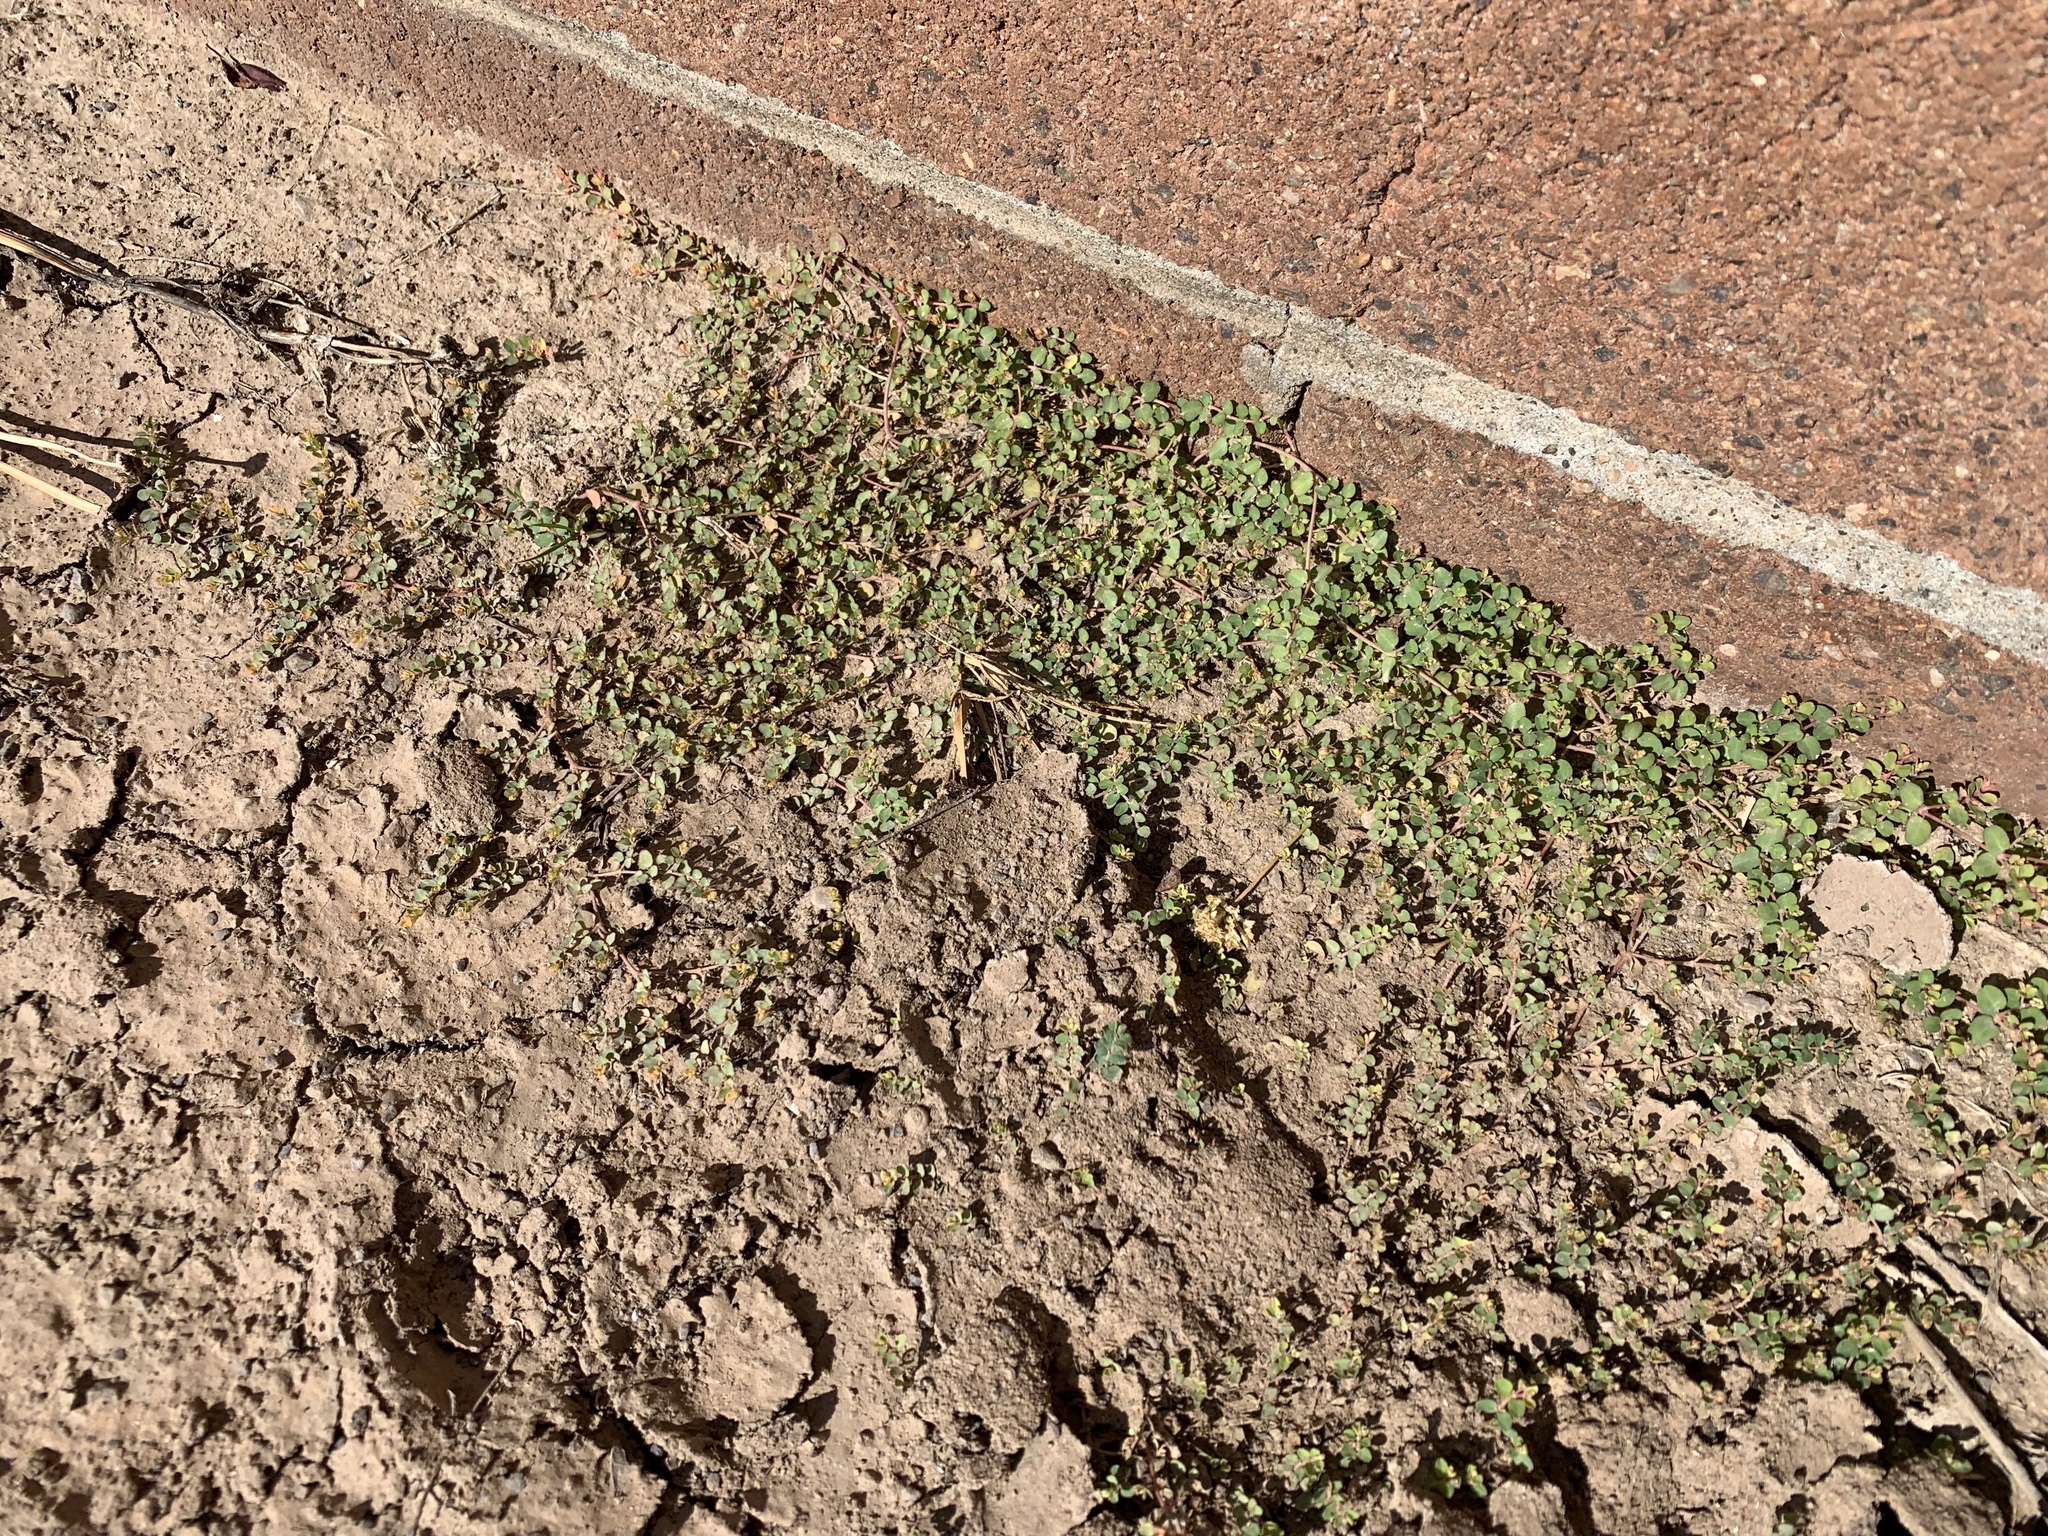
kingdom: Plantae
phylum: Tracheophyta
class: Magnoliopsida
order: Malpighiales
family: Euphorbiaceae
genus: Euphorbia
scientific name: Euphorbia serpens
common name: Matted sandmat
